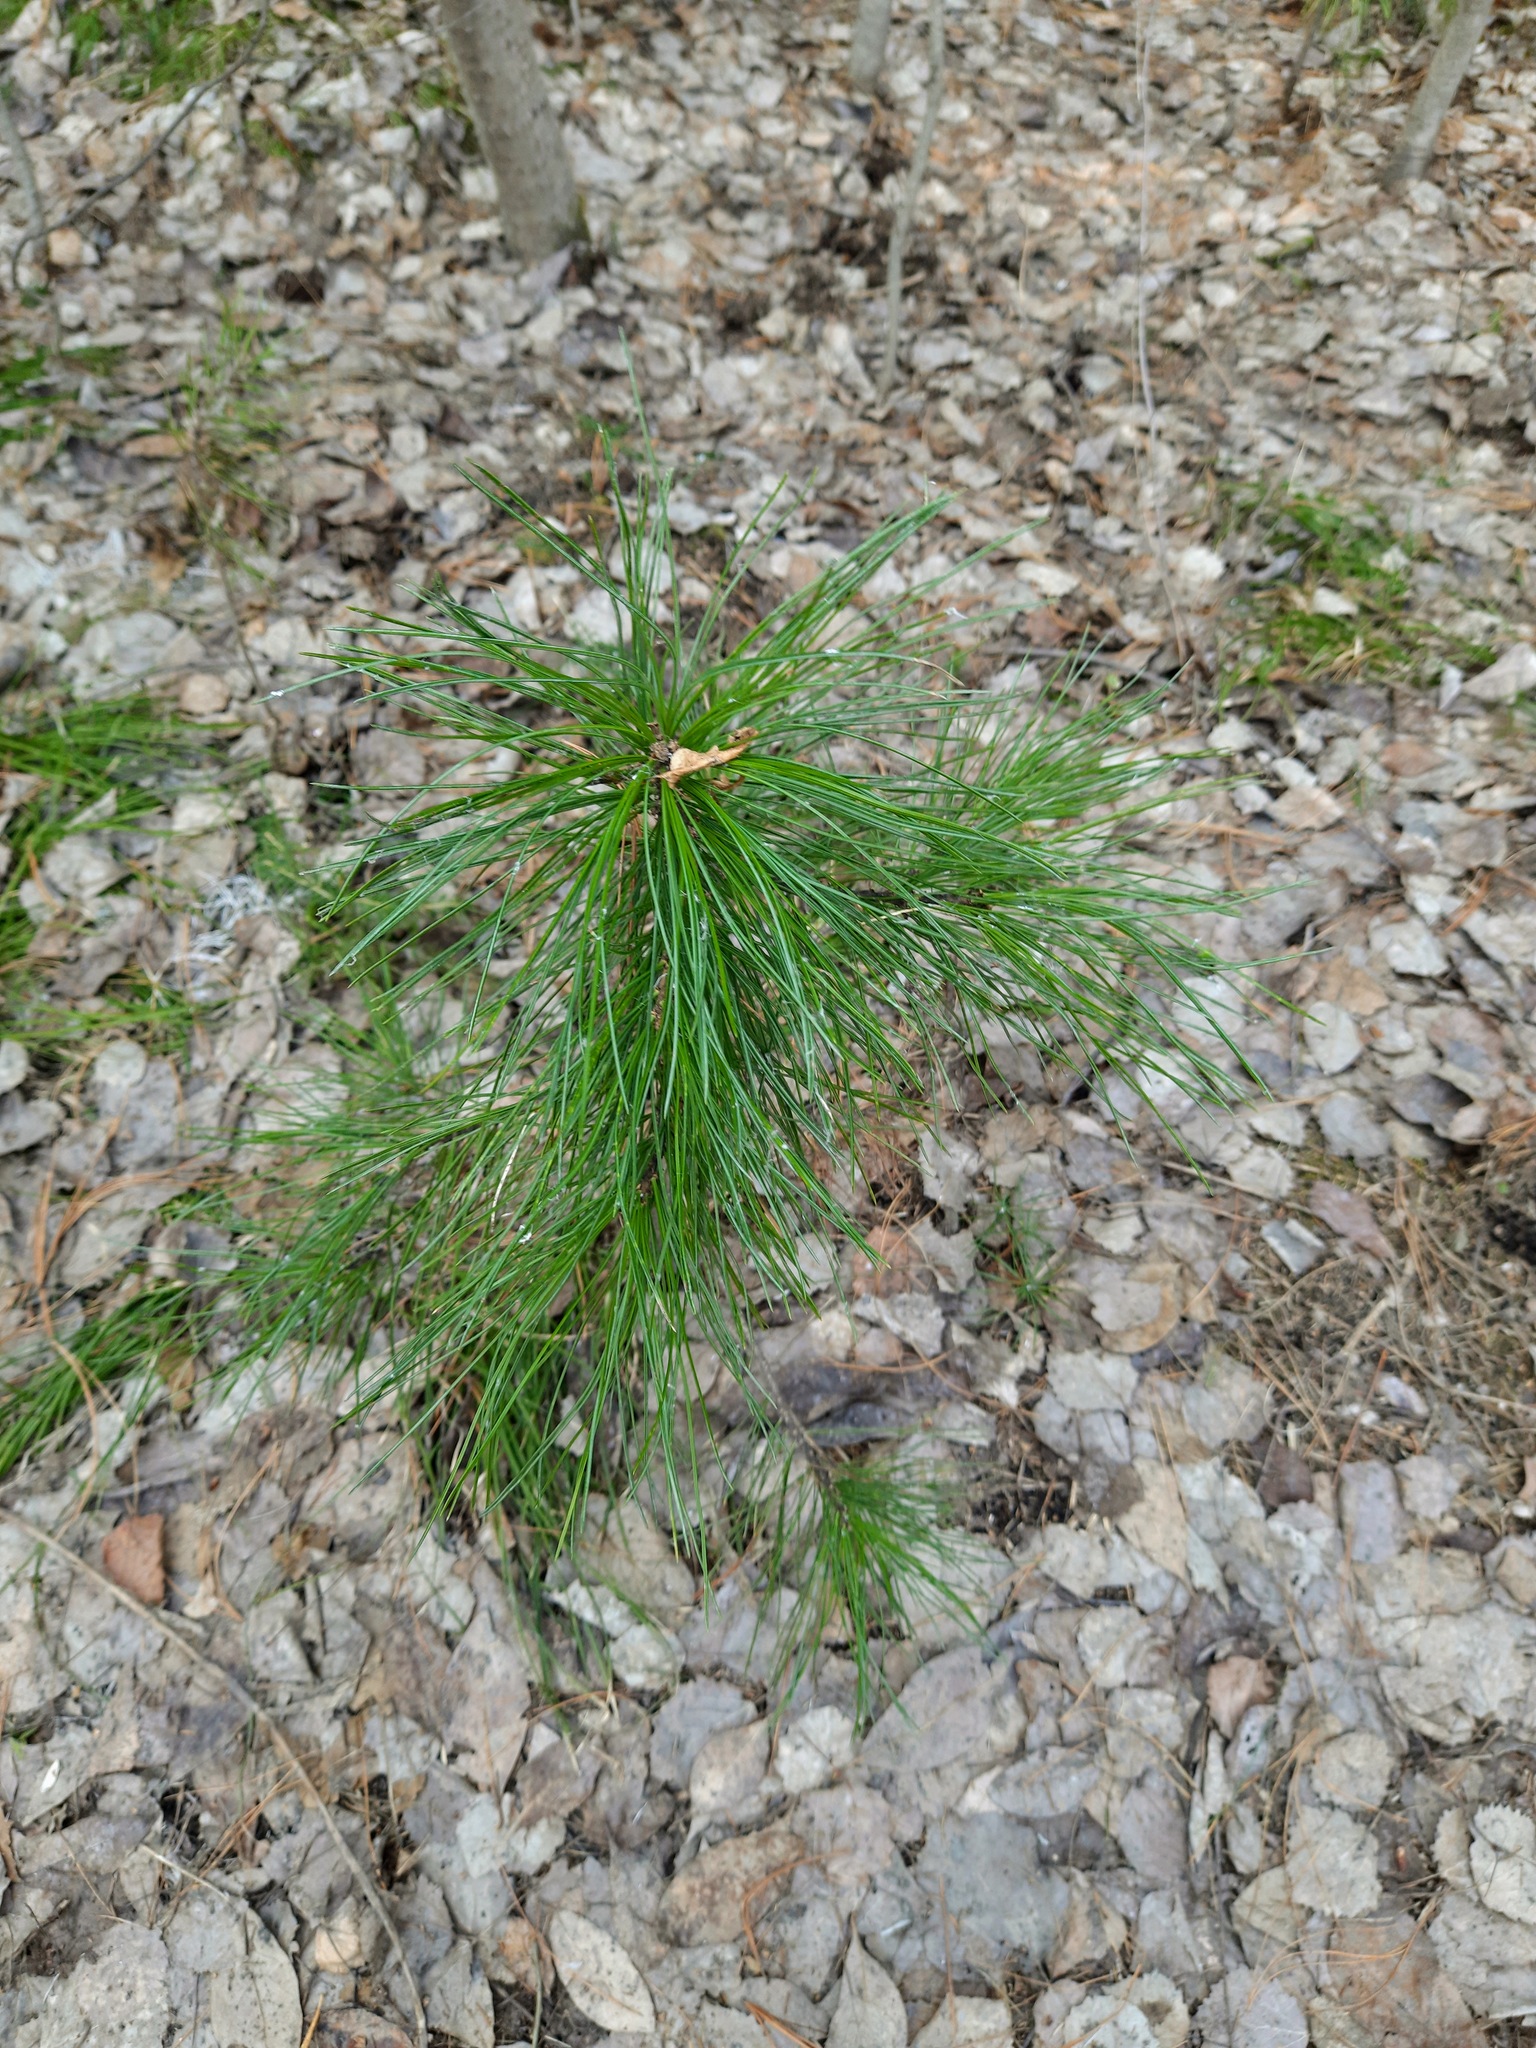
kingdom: Plantae
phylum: Tracheophyta
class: Pinopsida
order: Pinales
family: Pinaceae
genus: Pinus
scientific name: Pinus sibirica
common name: Siberian pine
